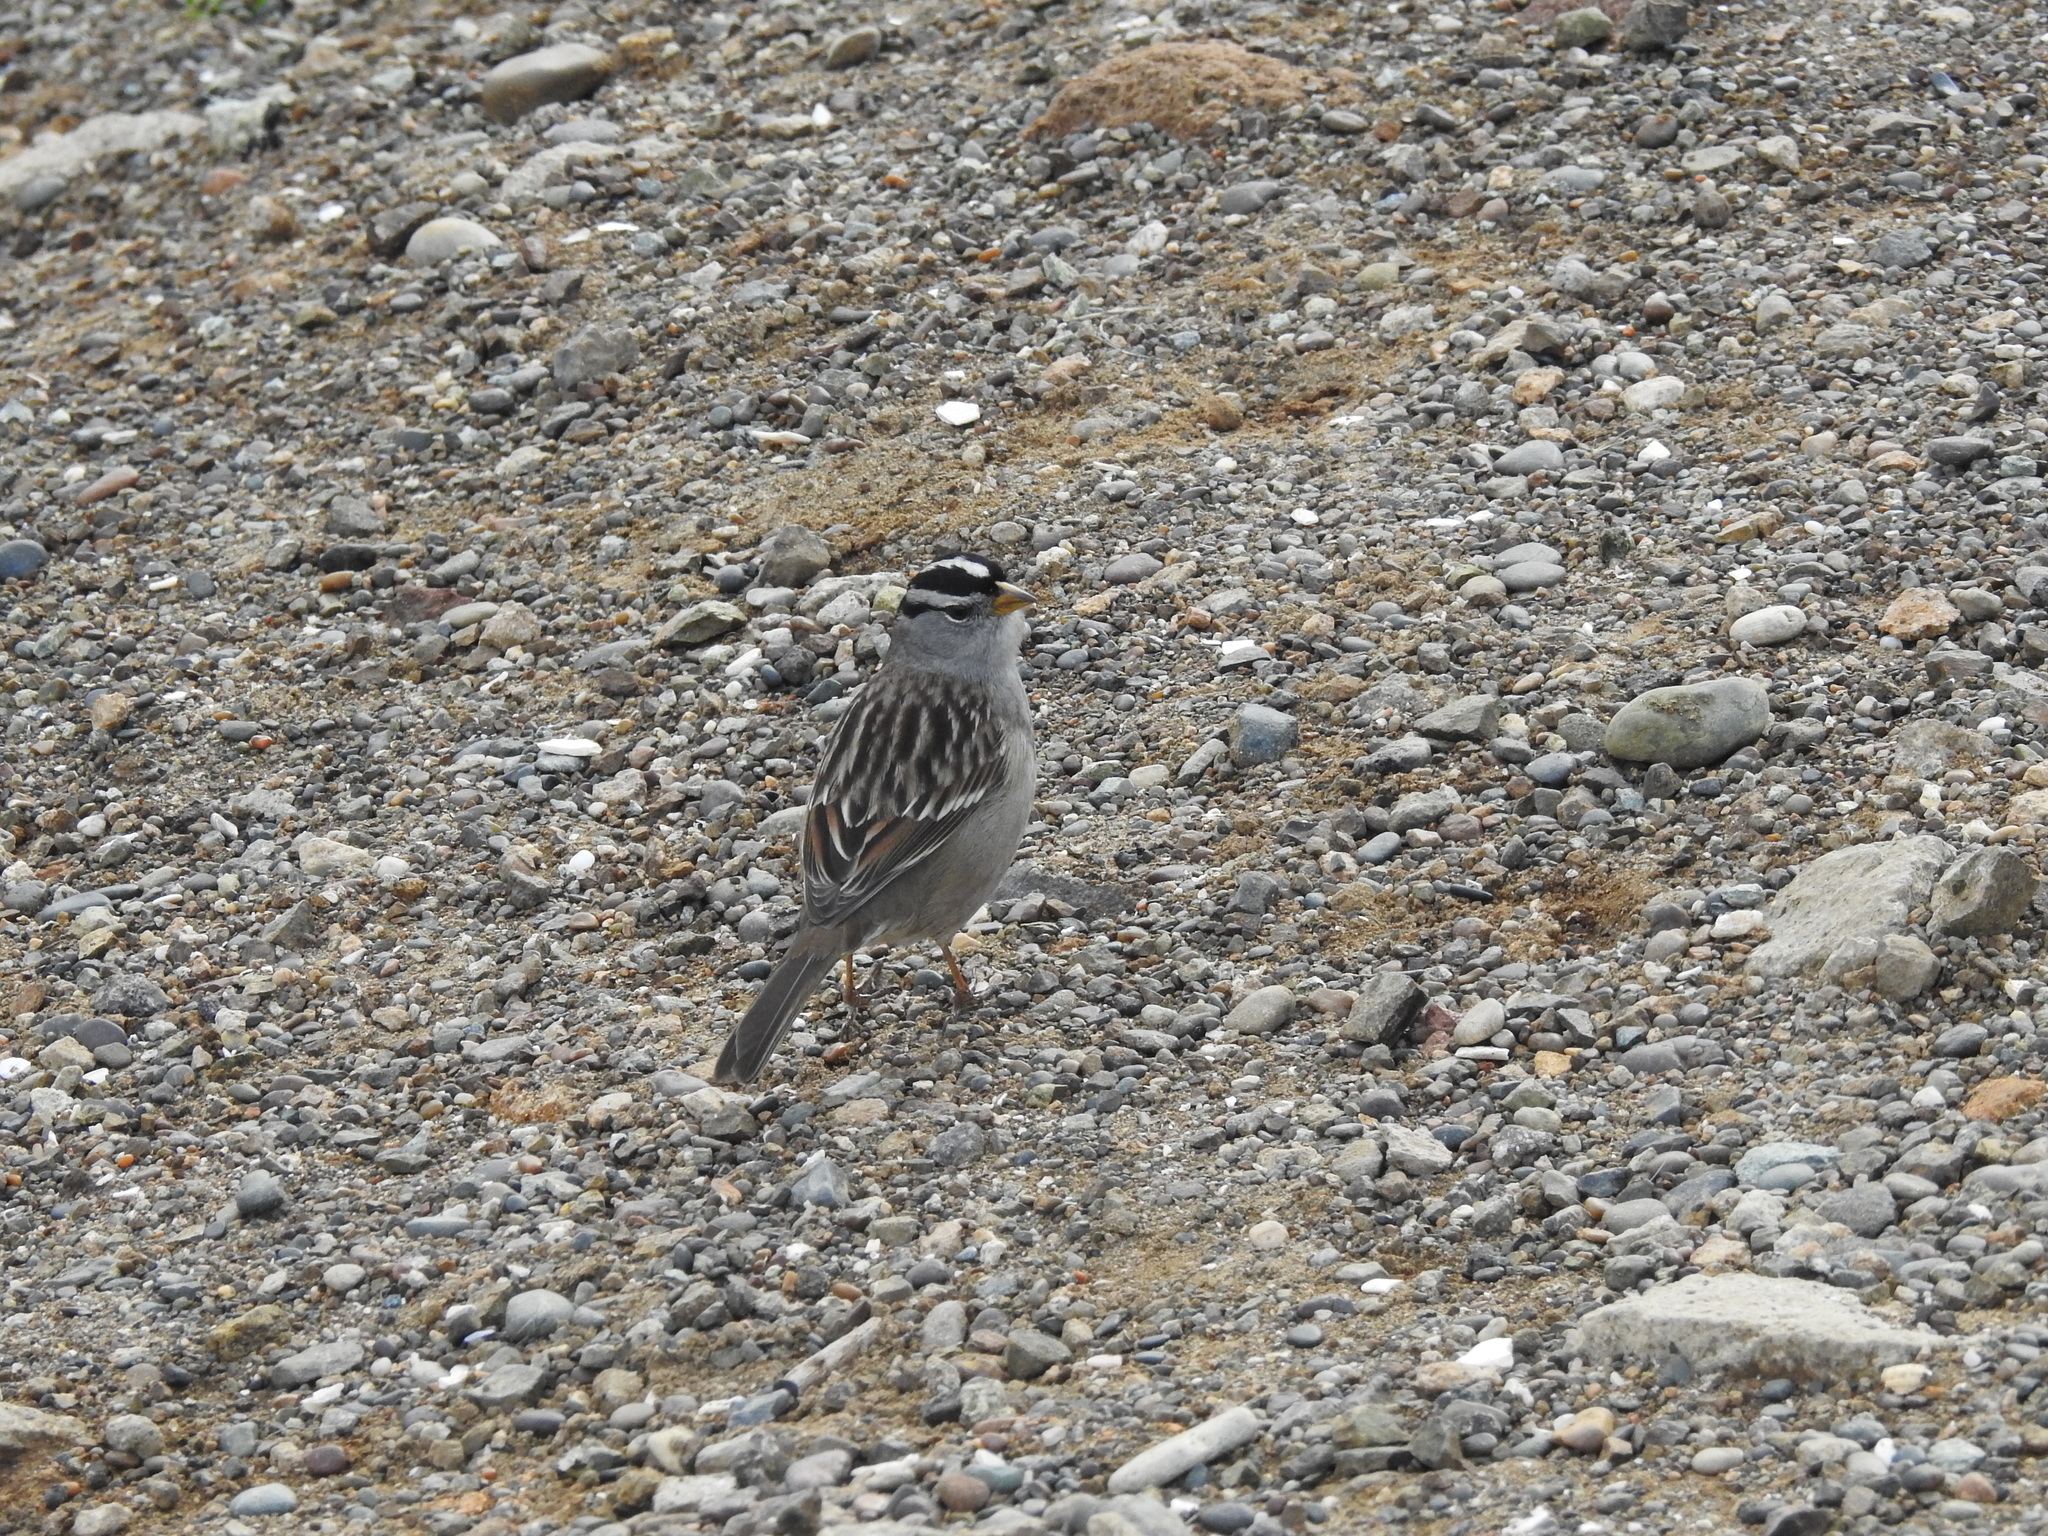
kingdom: Animalia
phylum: Chordata
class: Aves
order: Passeriformes
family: Passerellidae
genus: Zonotrichia
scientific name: Zonotrichia leucophrys
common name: White-crowned sparrow
